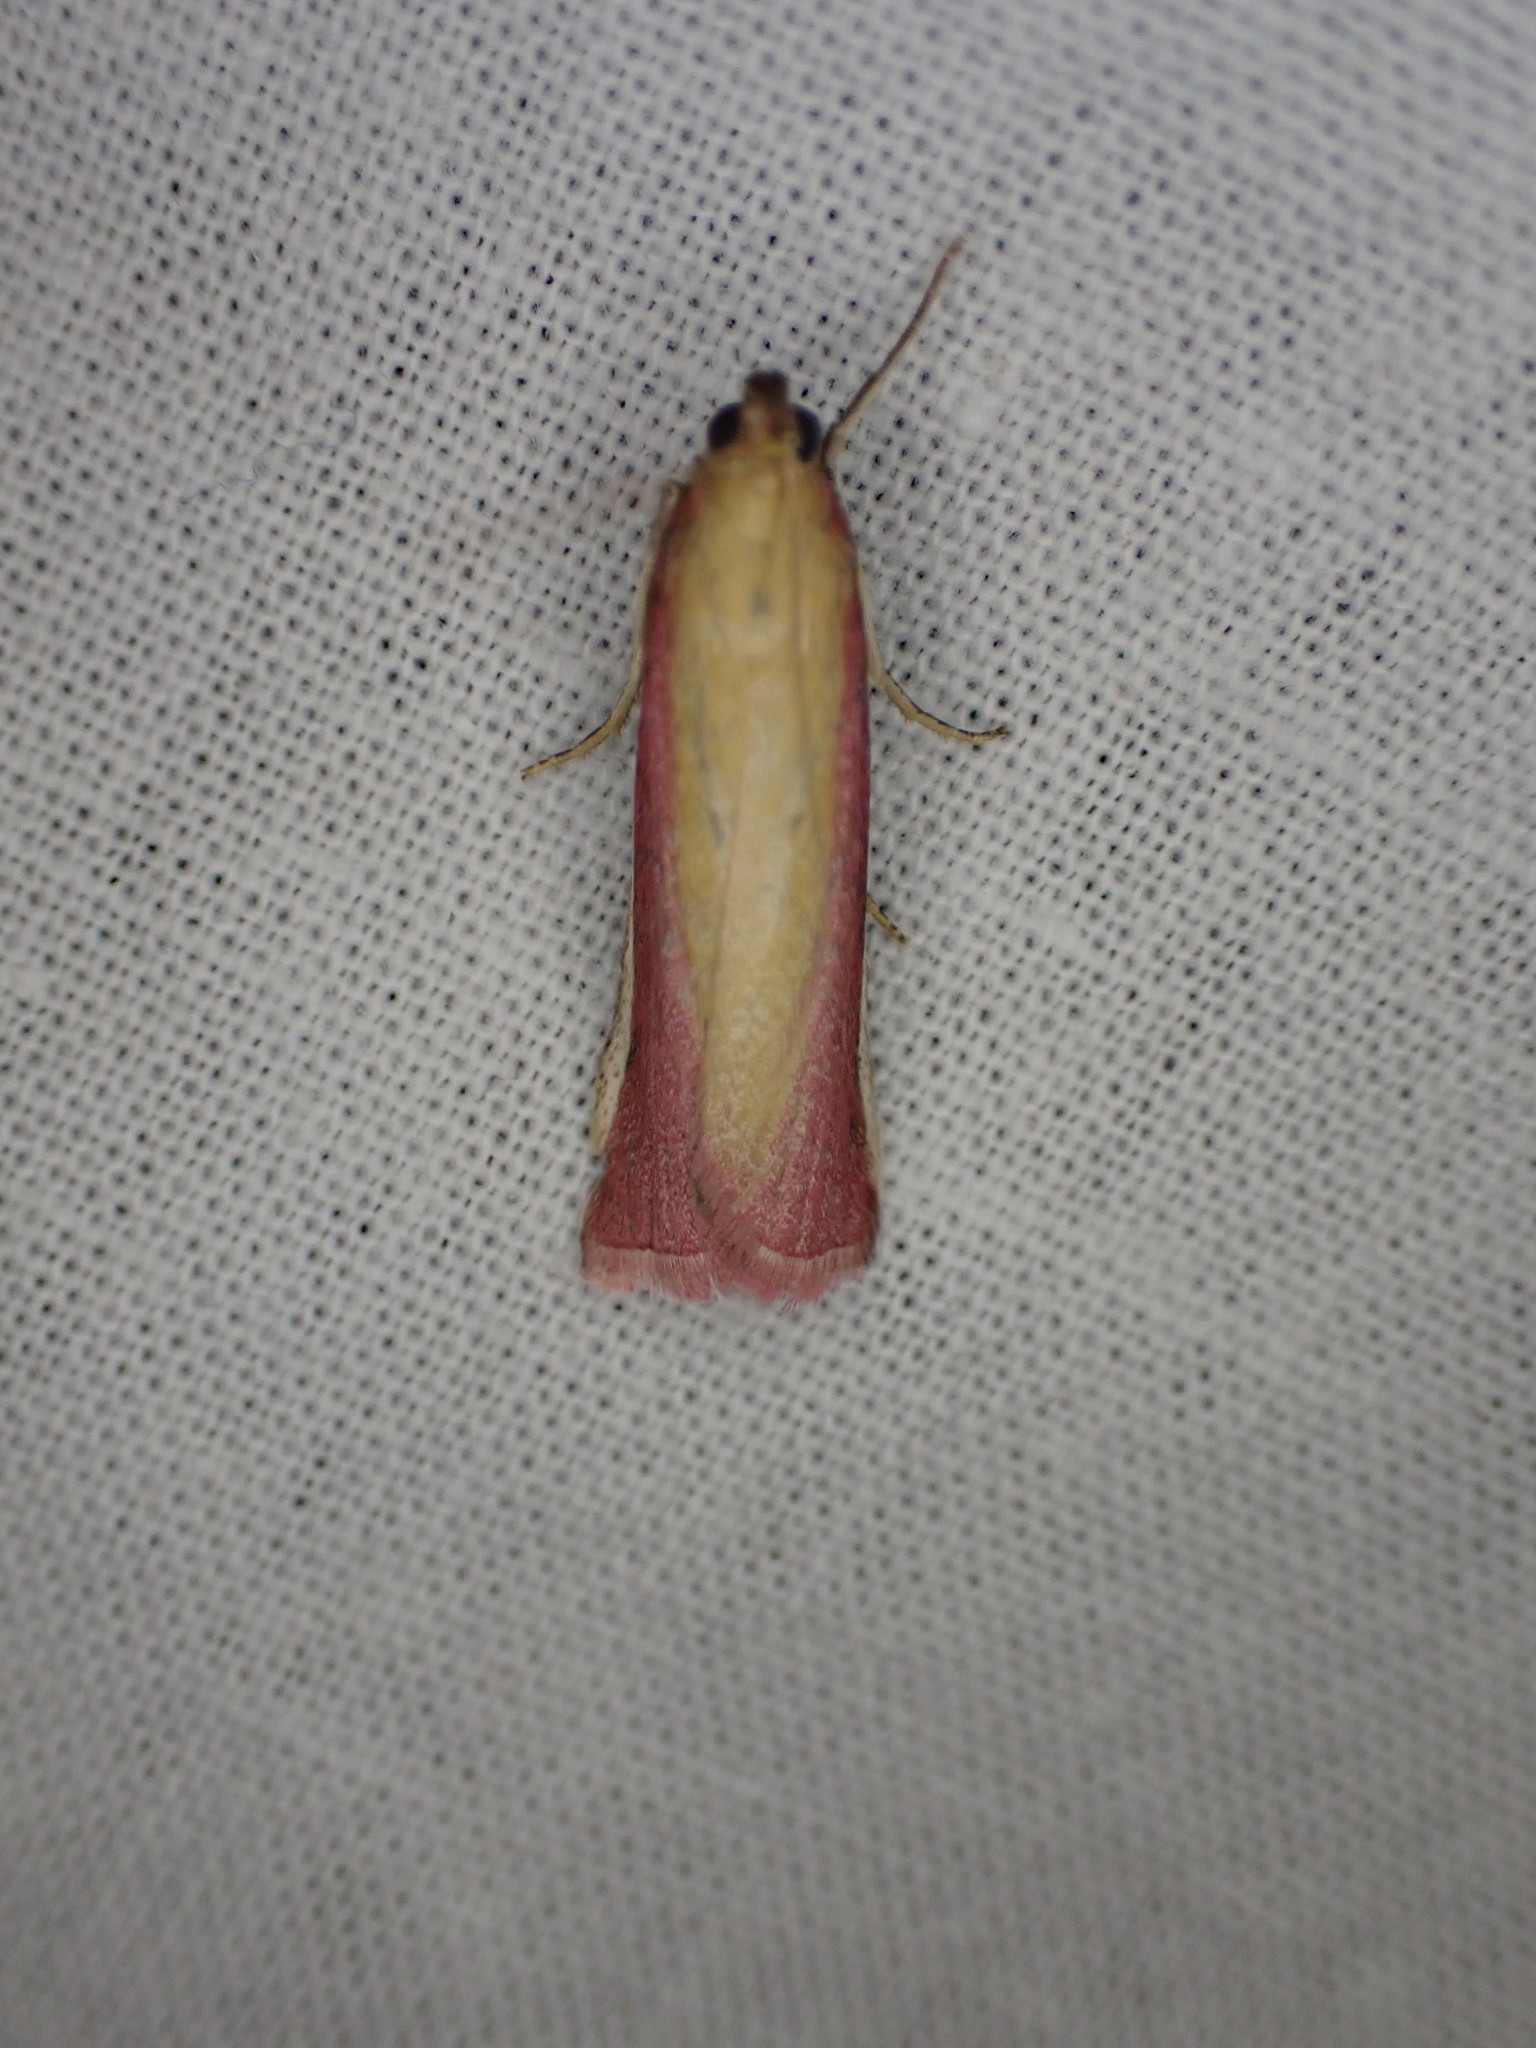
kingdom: Animalia
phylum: Arthropoda
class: Insecta
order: Lepidoptera
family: Pyralidae
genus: Oncocera
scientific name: Oncocera semirubella
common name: Rosy-striped knot-horn
